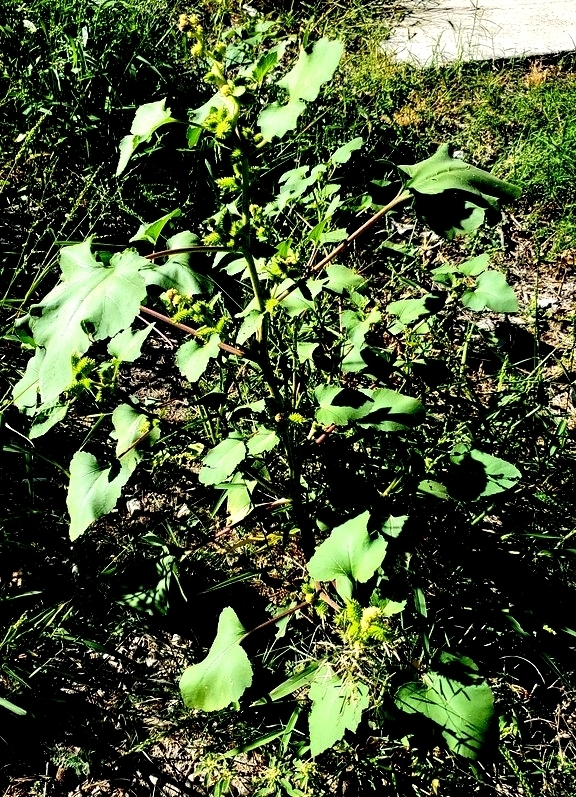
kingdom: Plantae
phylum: Tracheophyta
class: Magnoliopsida
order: Asterales
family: Asteraceae
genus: Xanthium
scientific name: Xanthium strumarium
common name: Rough cocklebur
